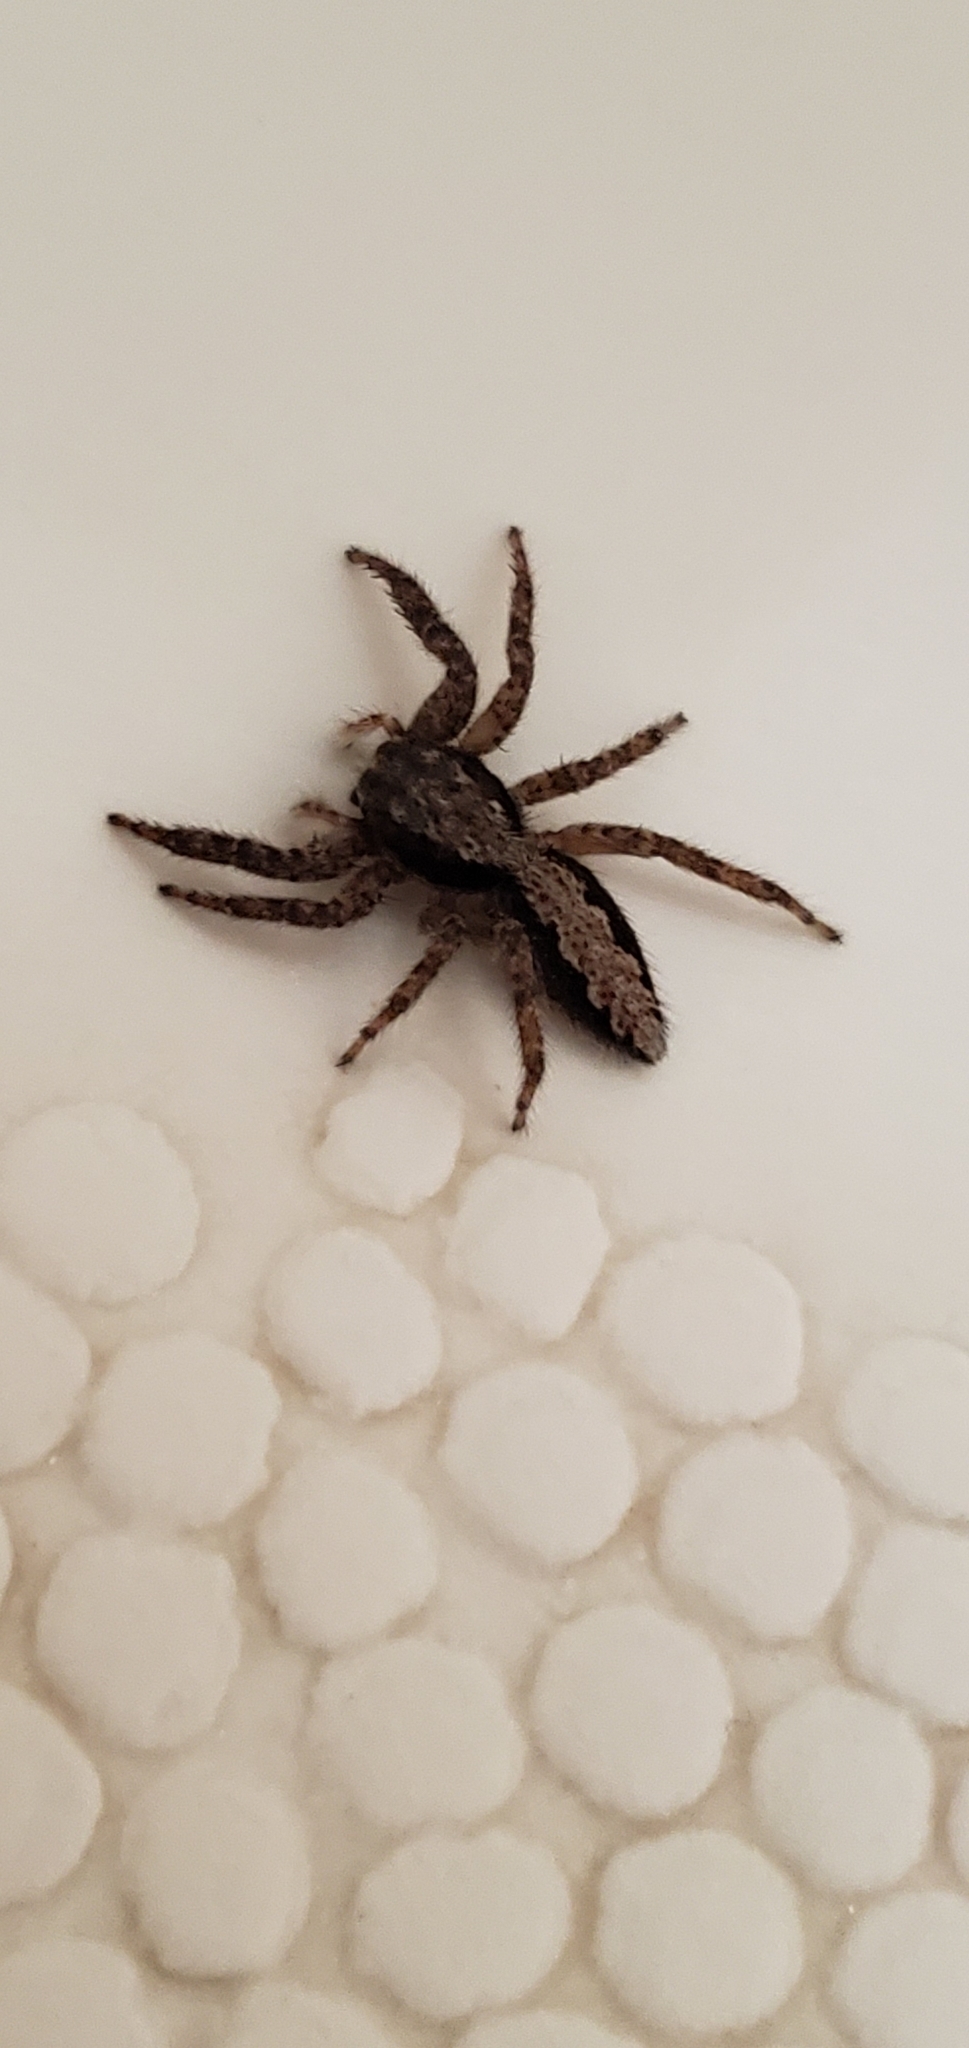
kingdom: Animalia
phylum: Arthropoda
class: Arachnida
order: Araneae
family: Salticidae
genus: Platycryptus
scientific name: Platycryptus californicus
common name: Jumping spiders
